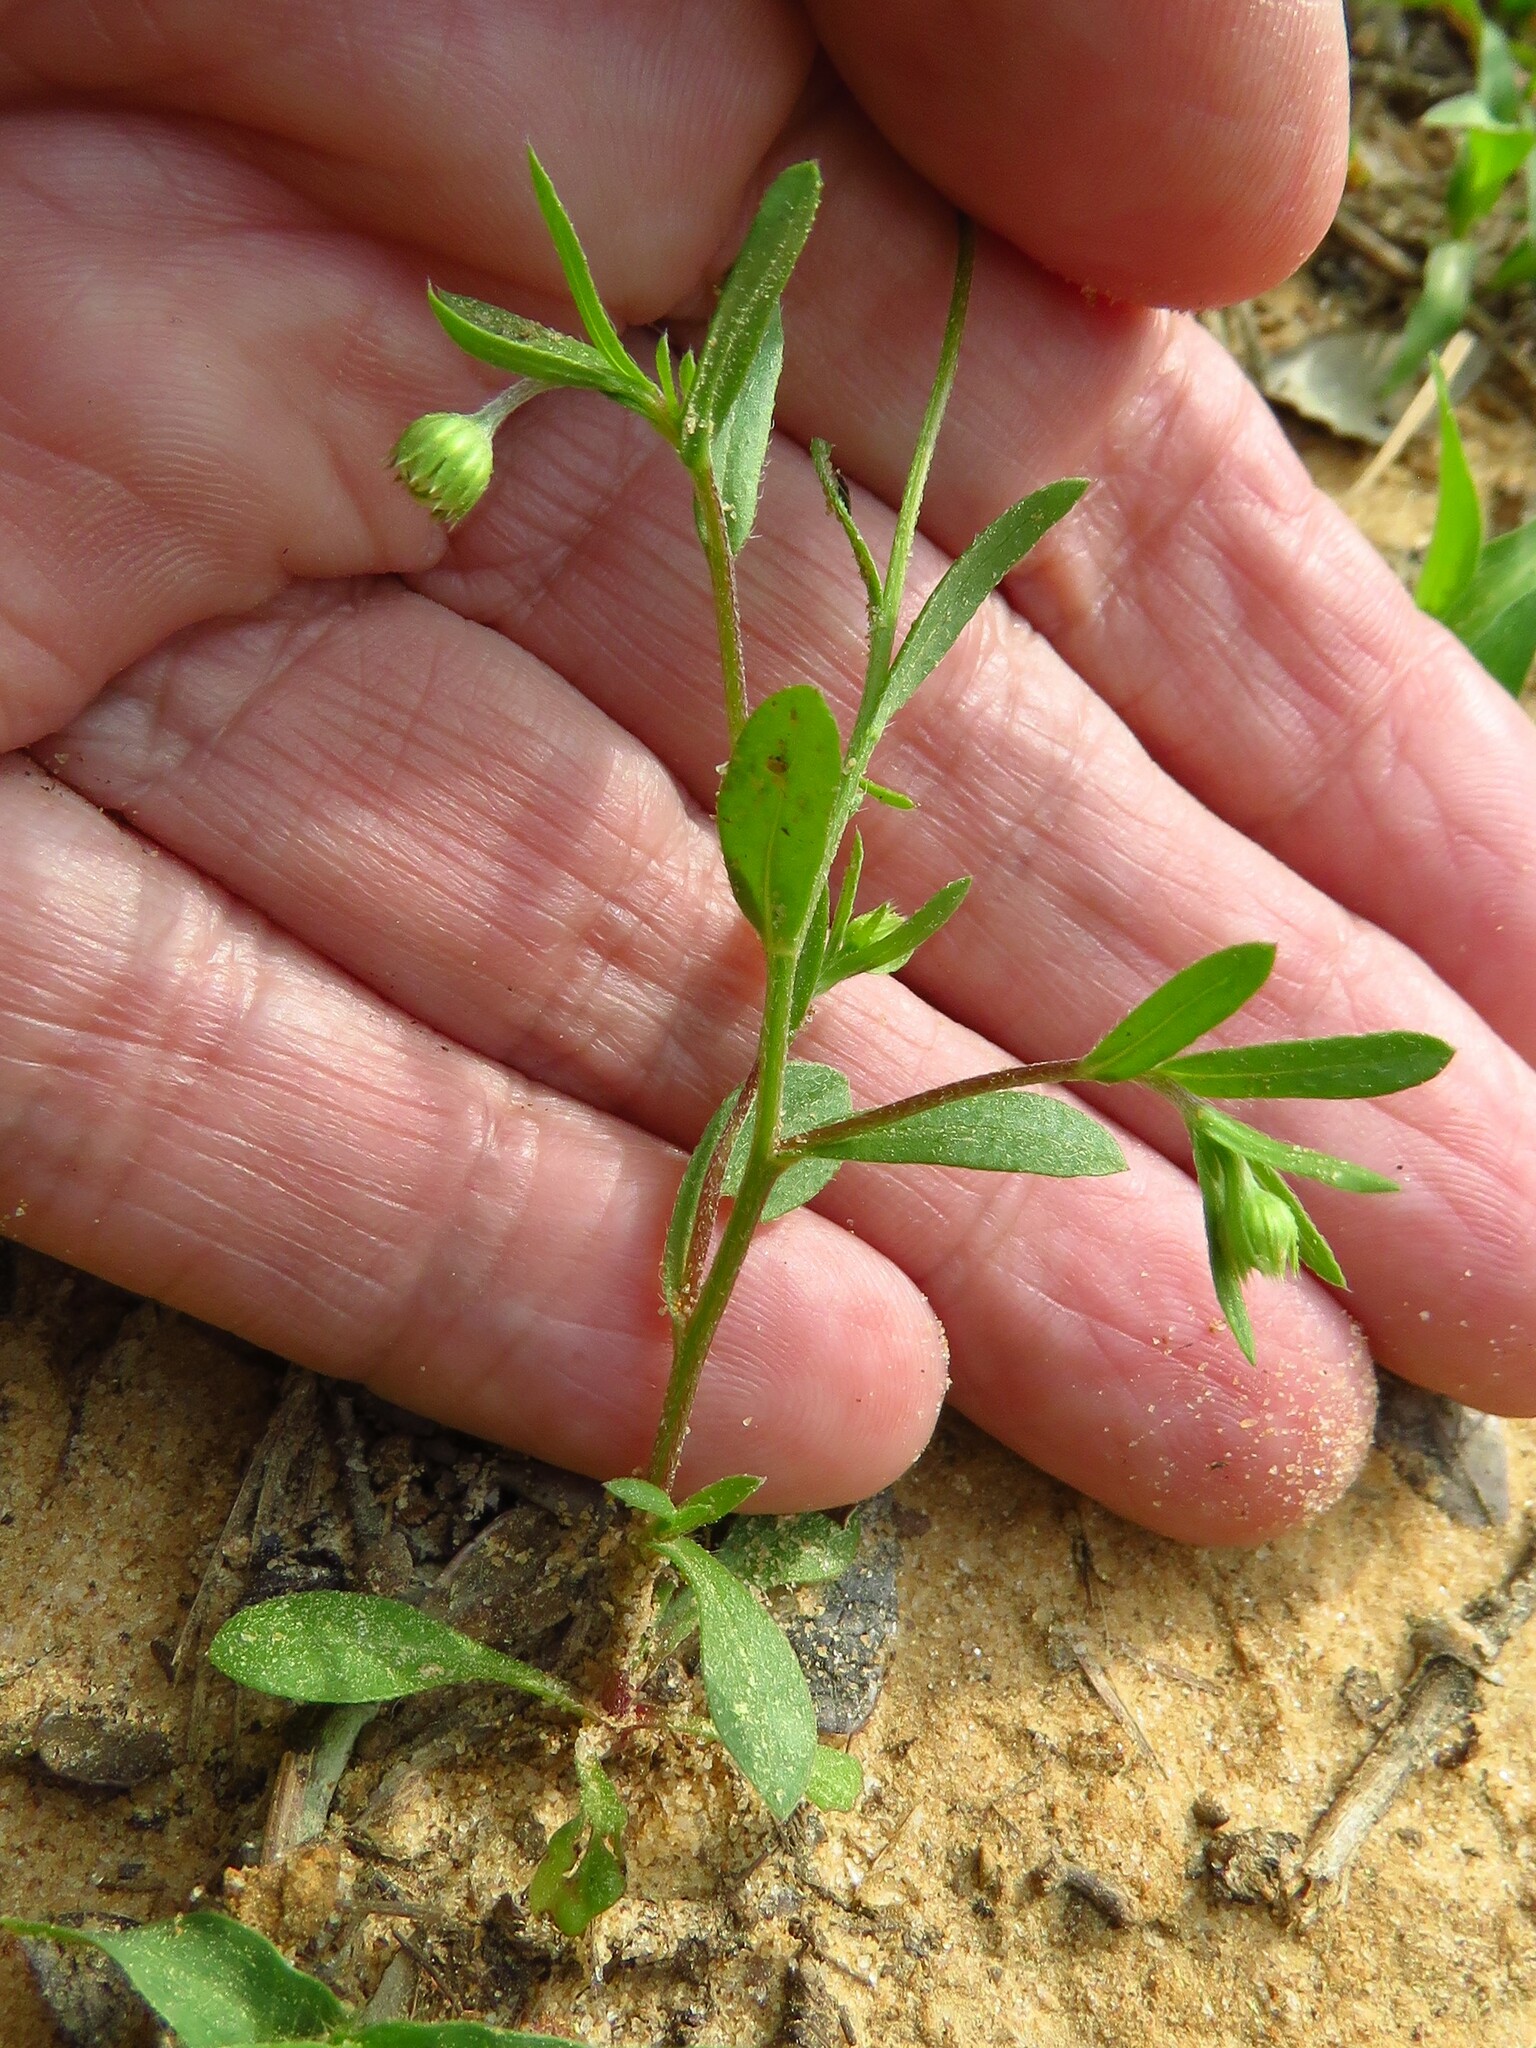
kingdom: Plantae
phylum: Tracheophyta
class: Magnoliopsida
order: Asterales
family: Asteraceae
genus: Astranthium
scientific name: Astranthium ciliatum
